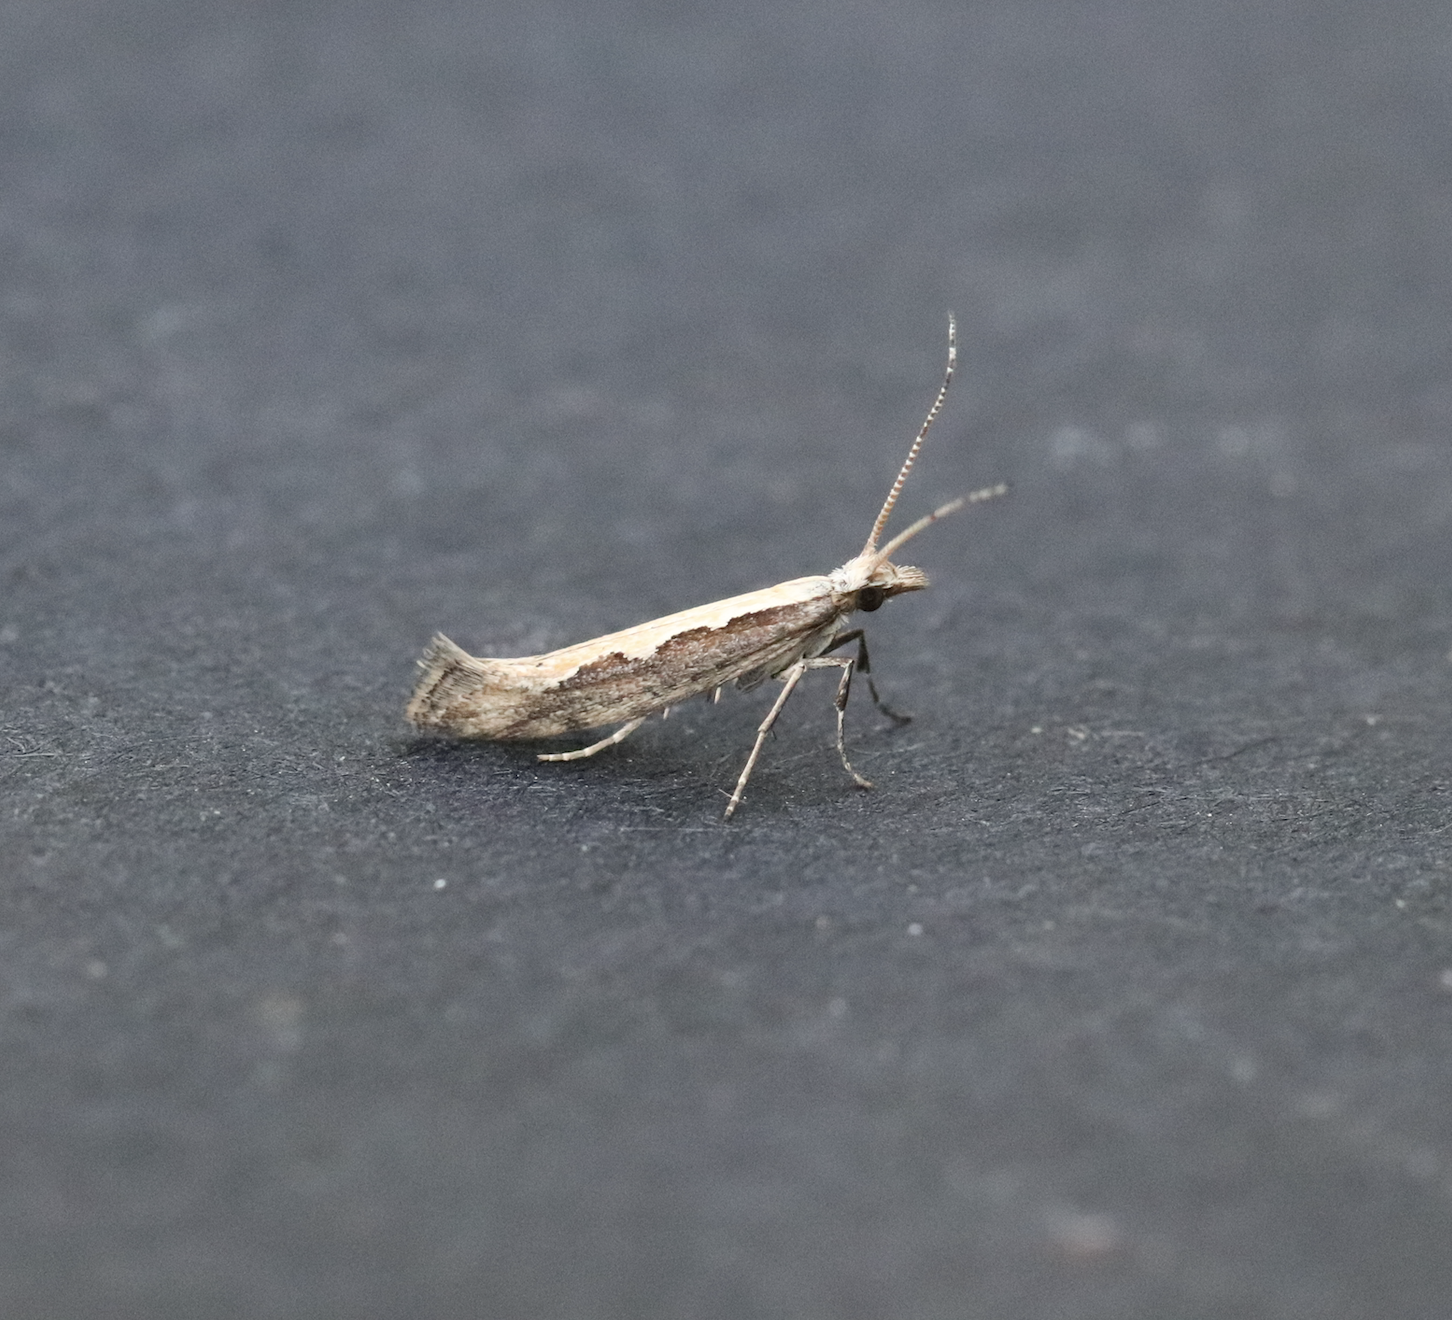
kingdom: Animalia
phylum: Arthropoda
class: Insecta
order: Lepidoptera
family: Plutellidae
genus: Plutella
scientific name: Plutella xylostella
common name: Diamond-back moth
